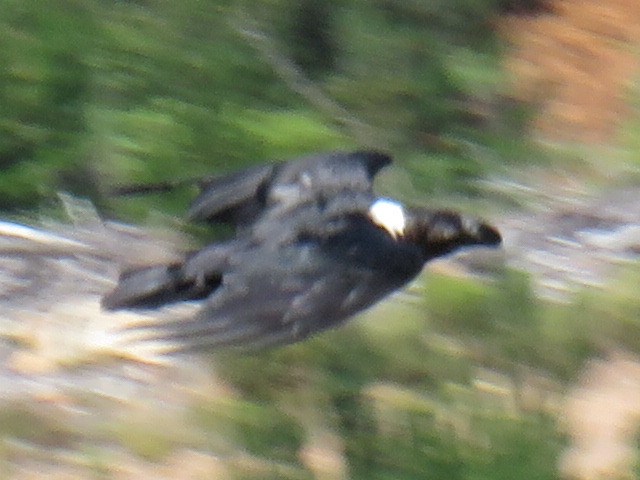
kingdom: Animalia
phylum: Chordata
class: Aves
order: Passeriformes
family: Corvidae
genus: Corvus
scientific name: Corvus albicollis
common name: White-necked raven
